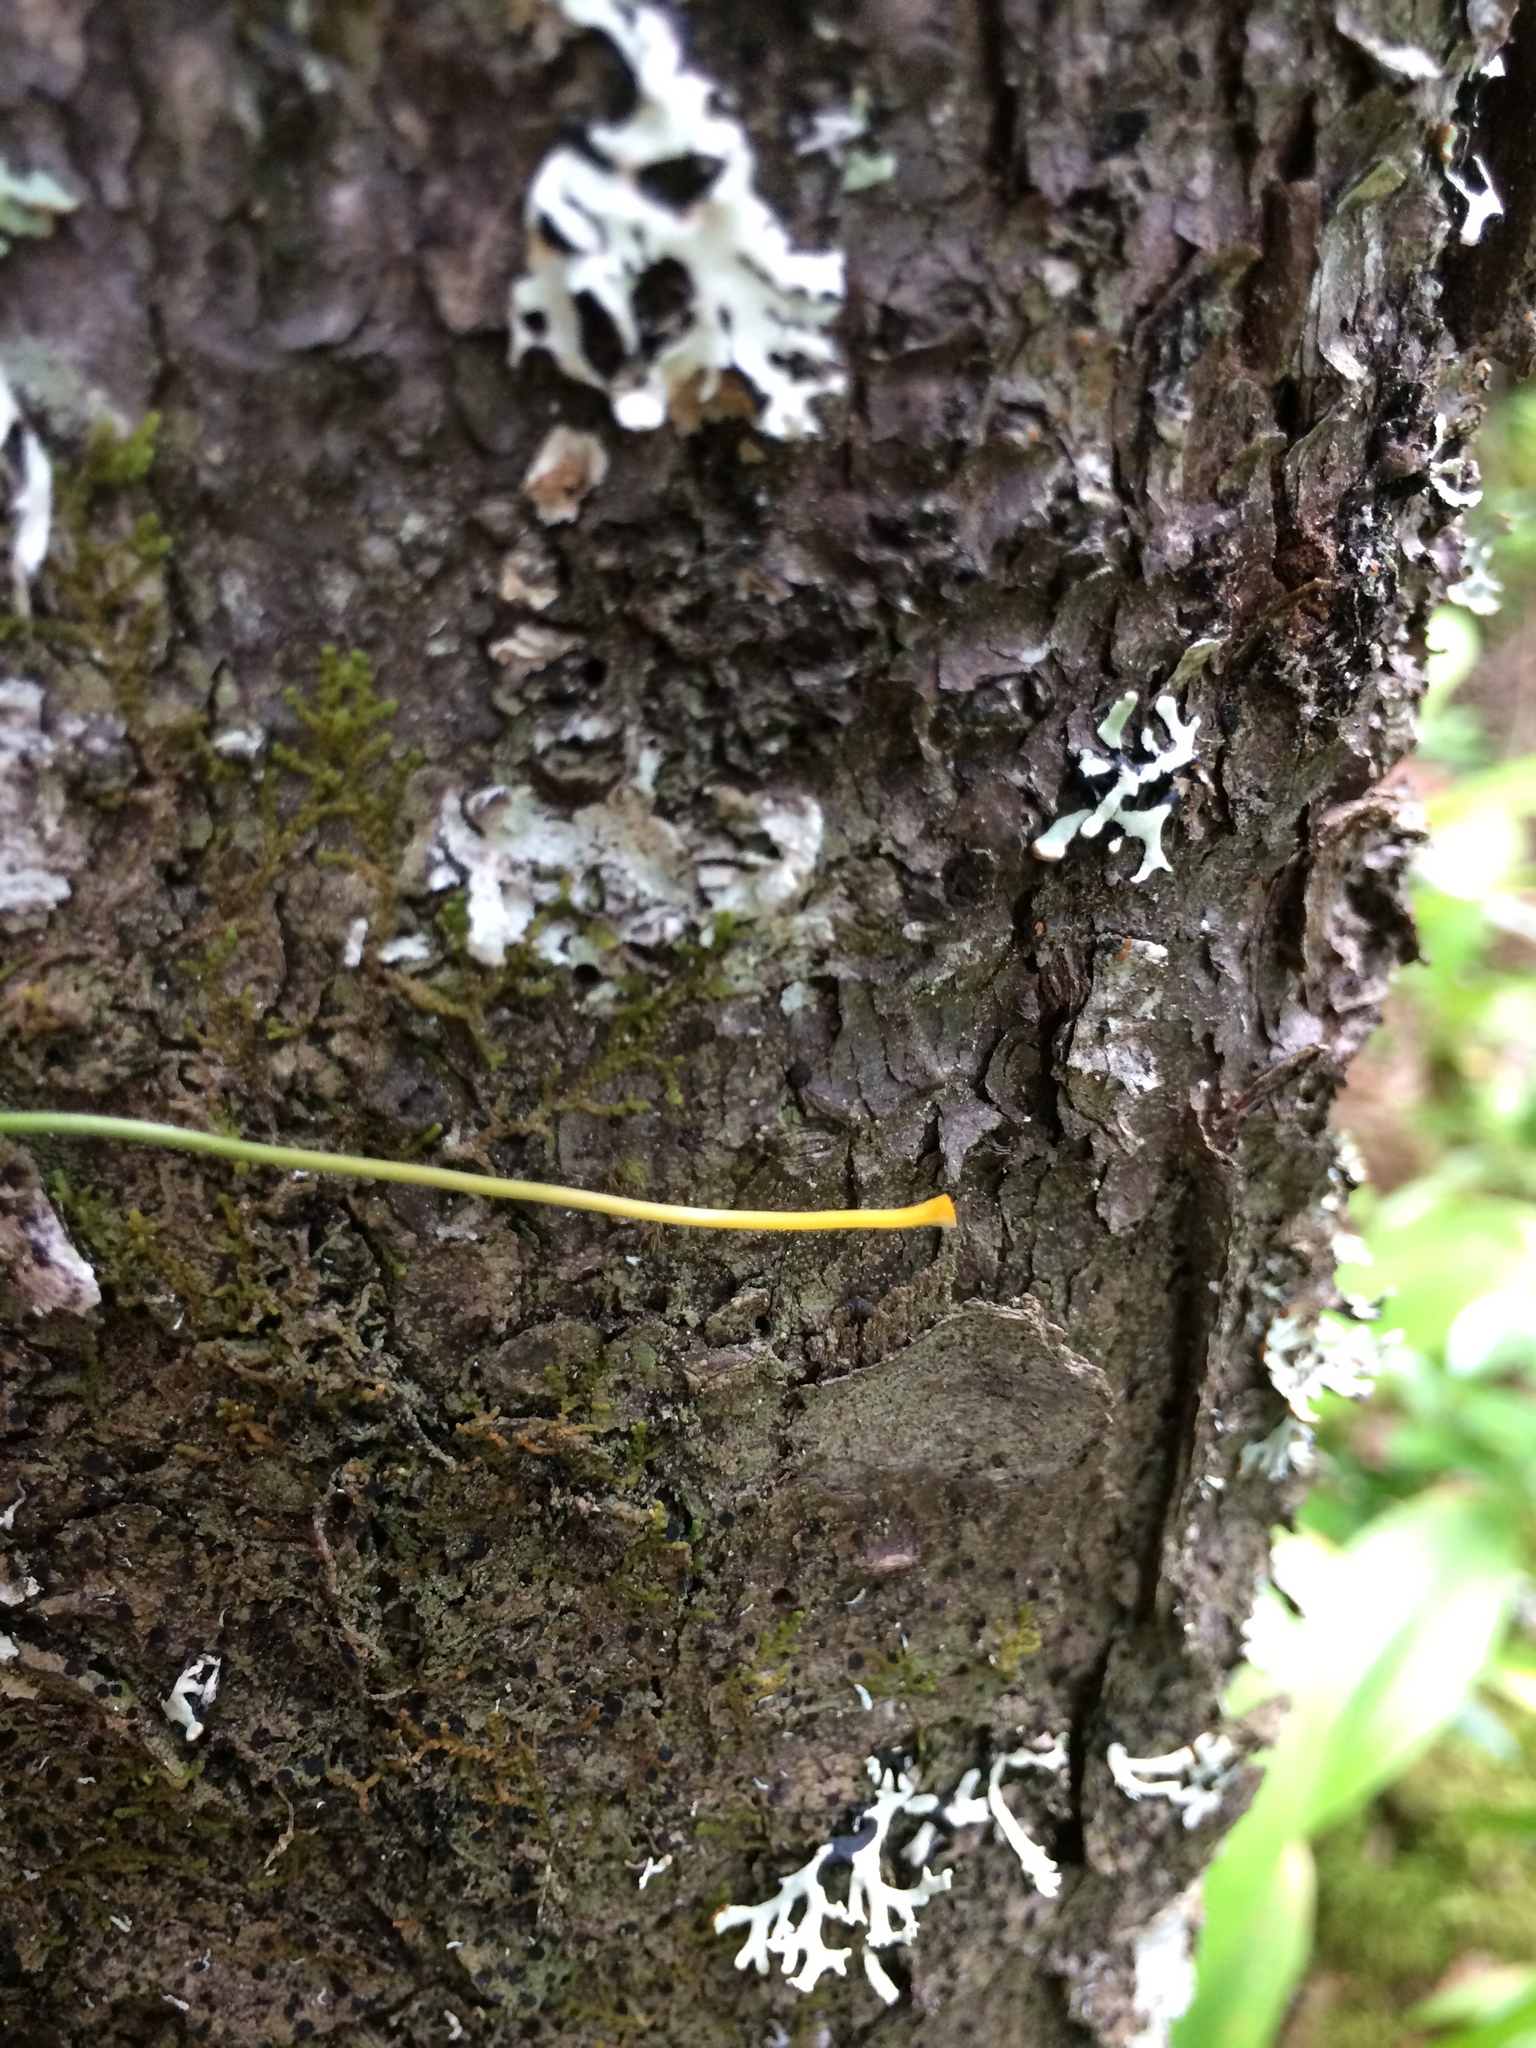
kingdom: Plantae
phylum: Tracheophyta
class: Magnoliopsida
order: Ranunculales
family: Ranunculaceae
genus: Coptis
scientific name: Coptis trifolia
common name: Canker-root
